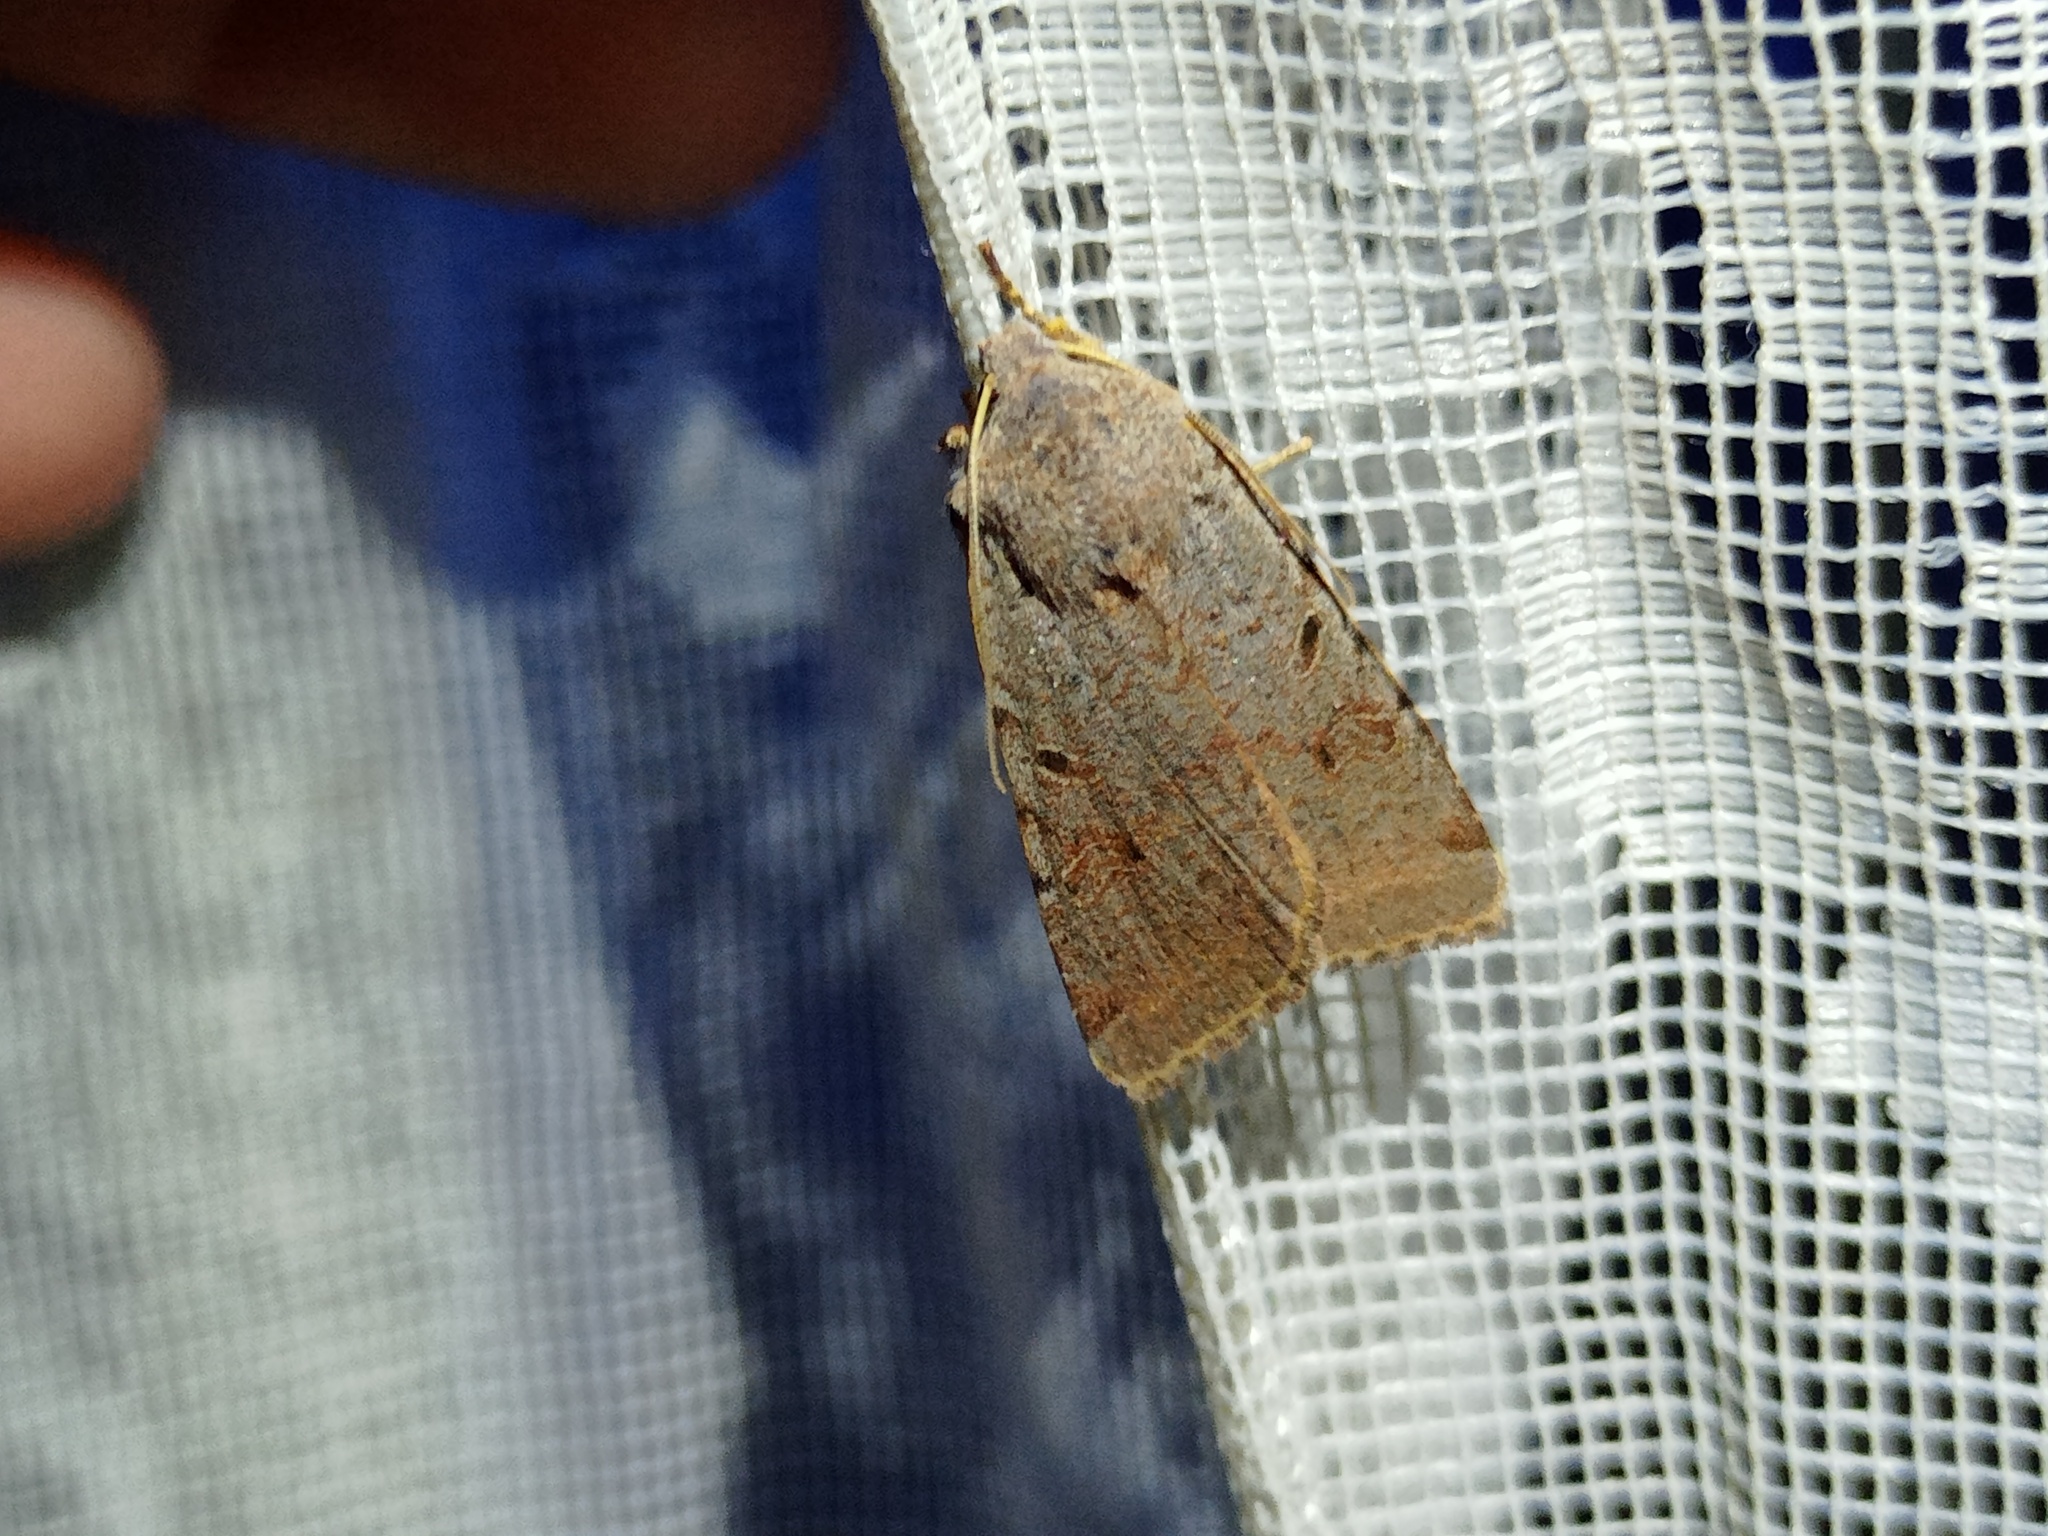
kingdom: Animalia
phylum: Arthropoda
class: Insecta
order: Lepidoptera
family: Noctuidae
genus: Agrochola
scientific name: Agrochola lychnidis
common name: Beaded chestnut
